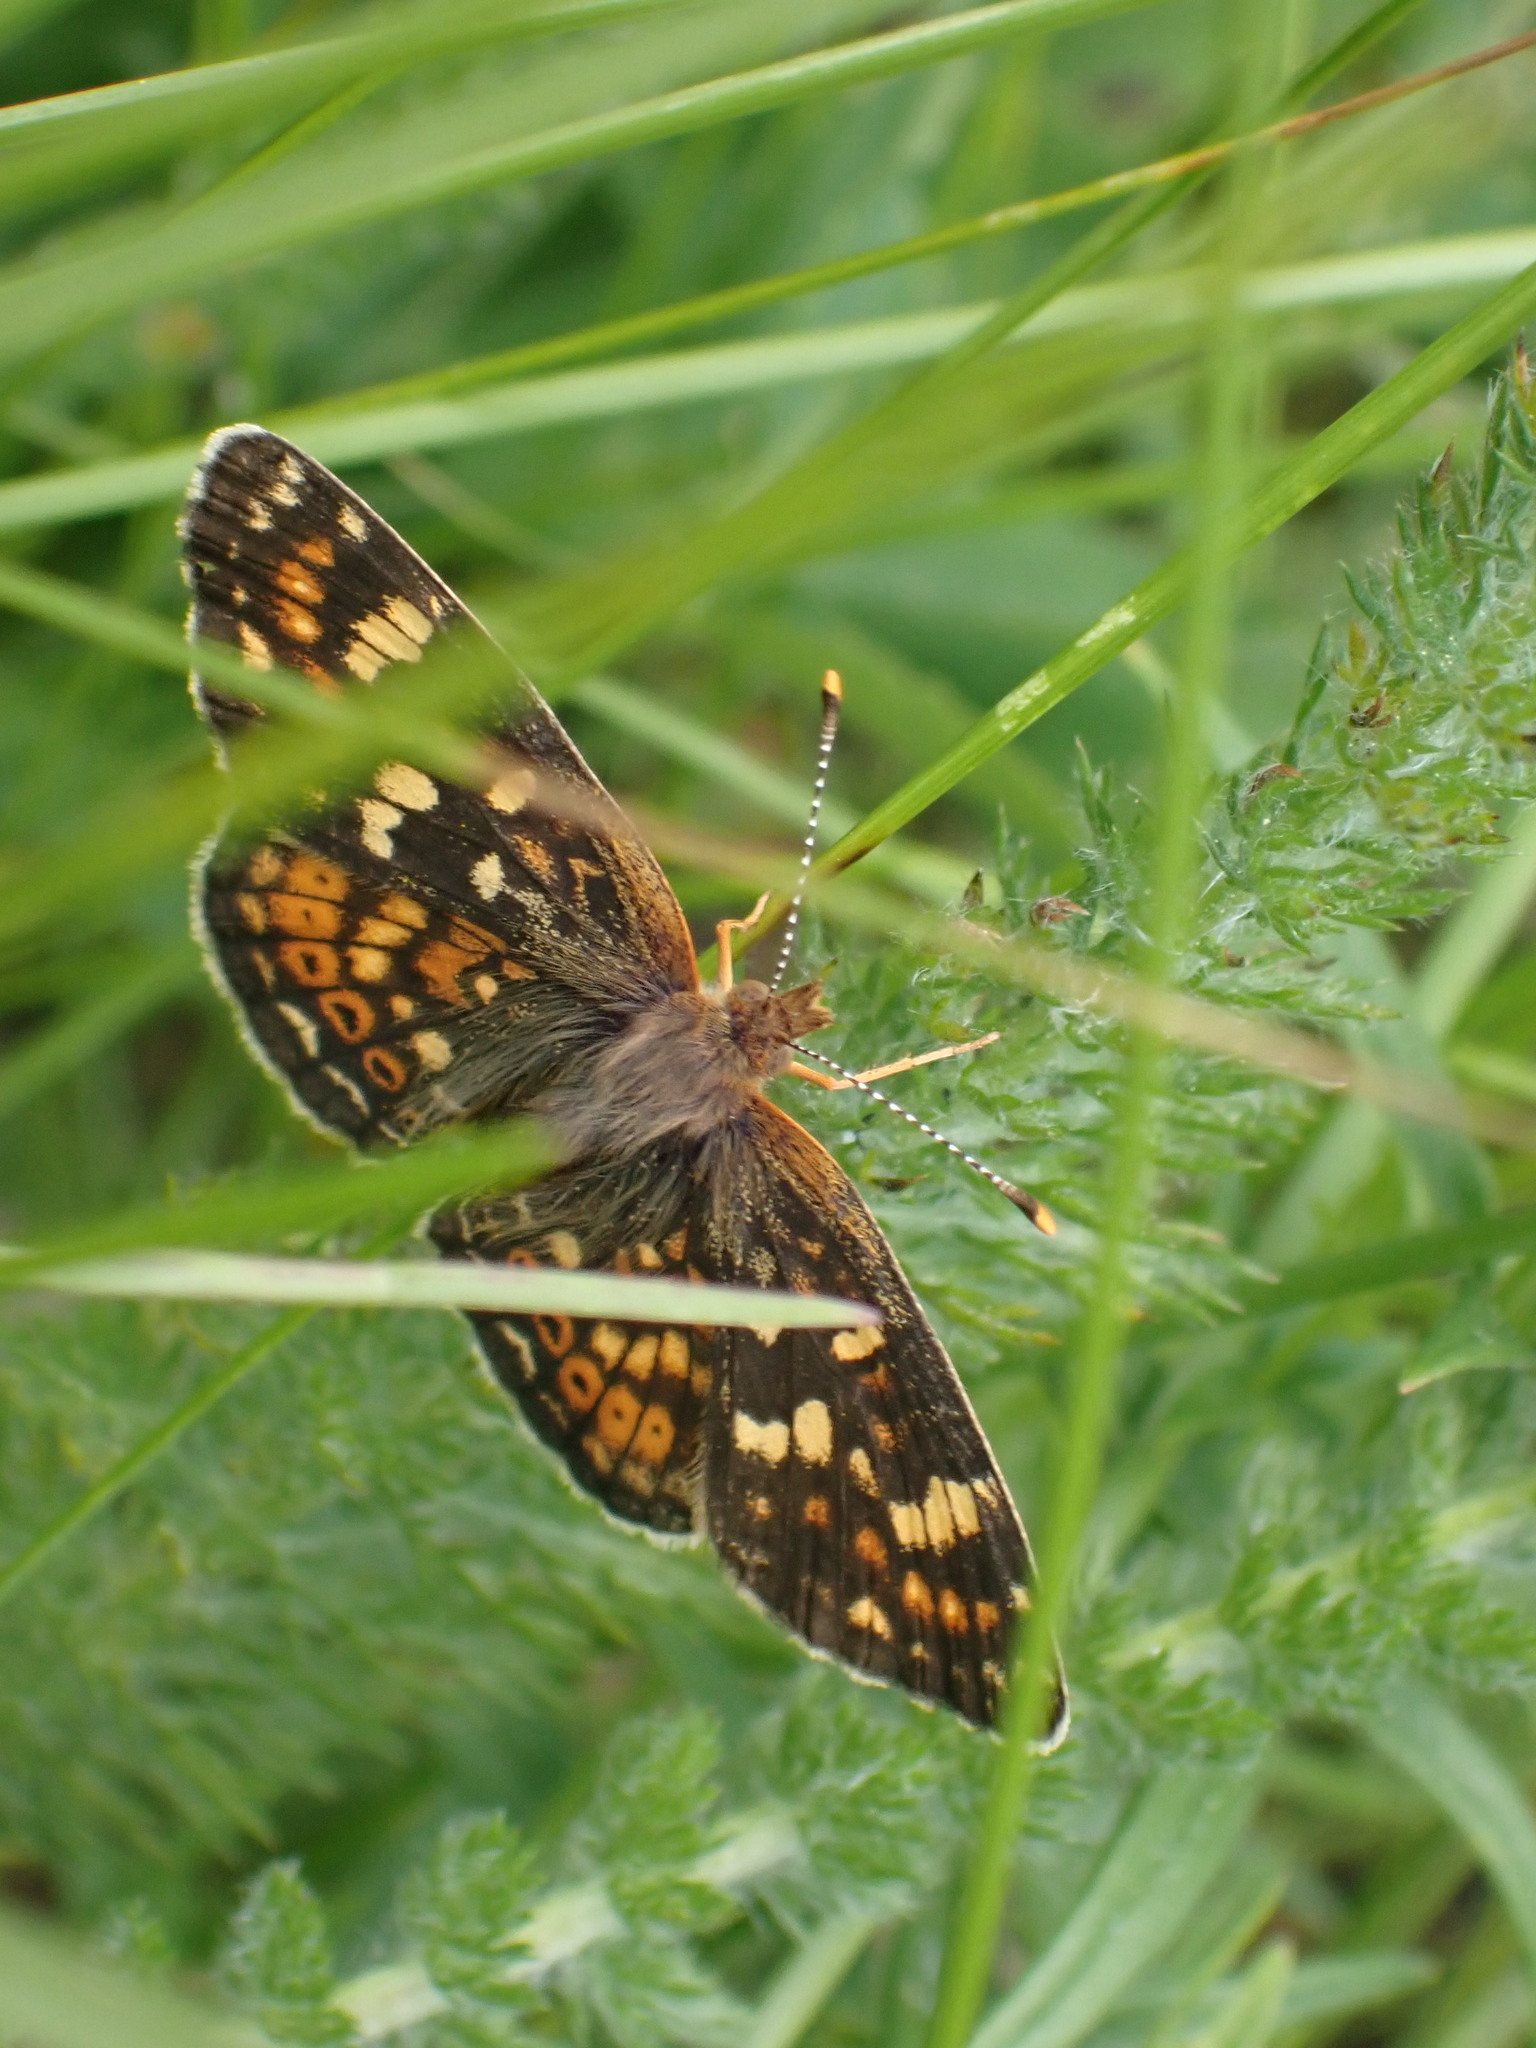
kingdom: Animalia
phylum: Arthropoda
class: Insecta
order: Lepidoptera
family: Nymphalidae
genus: Phyciodes
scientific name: Phyciodes tharos
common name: Pearl crescent
